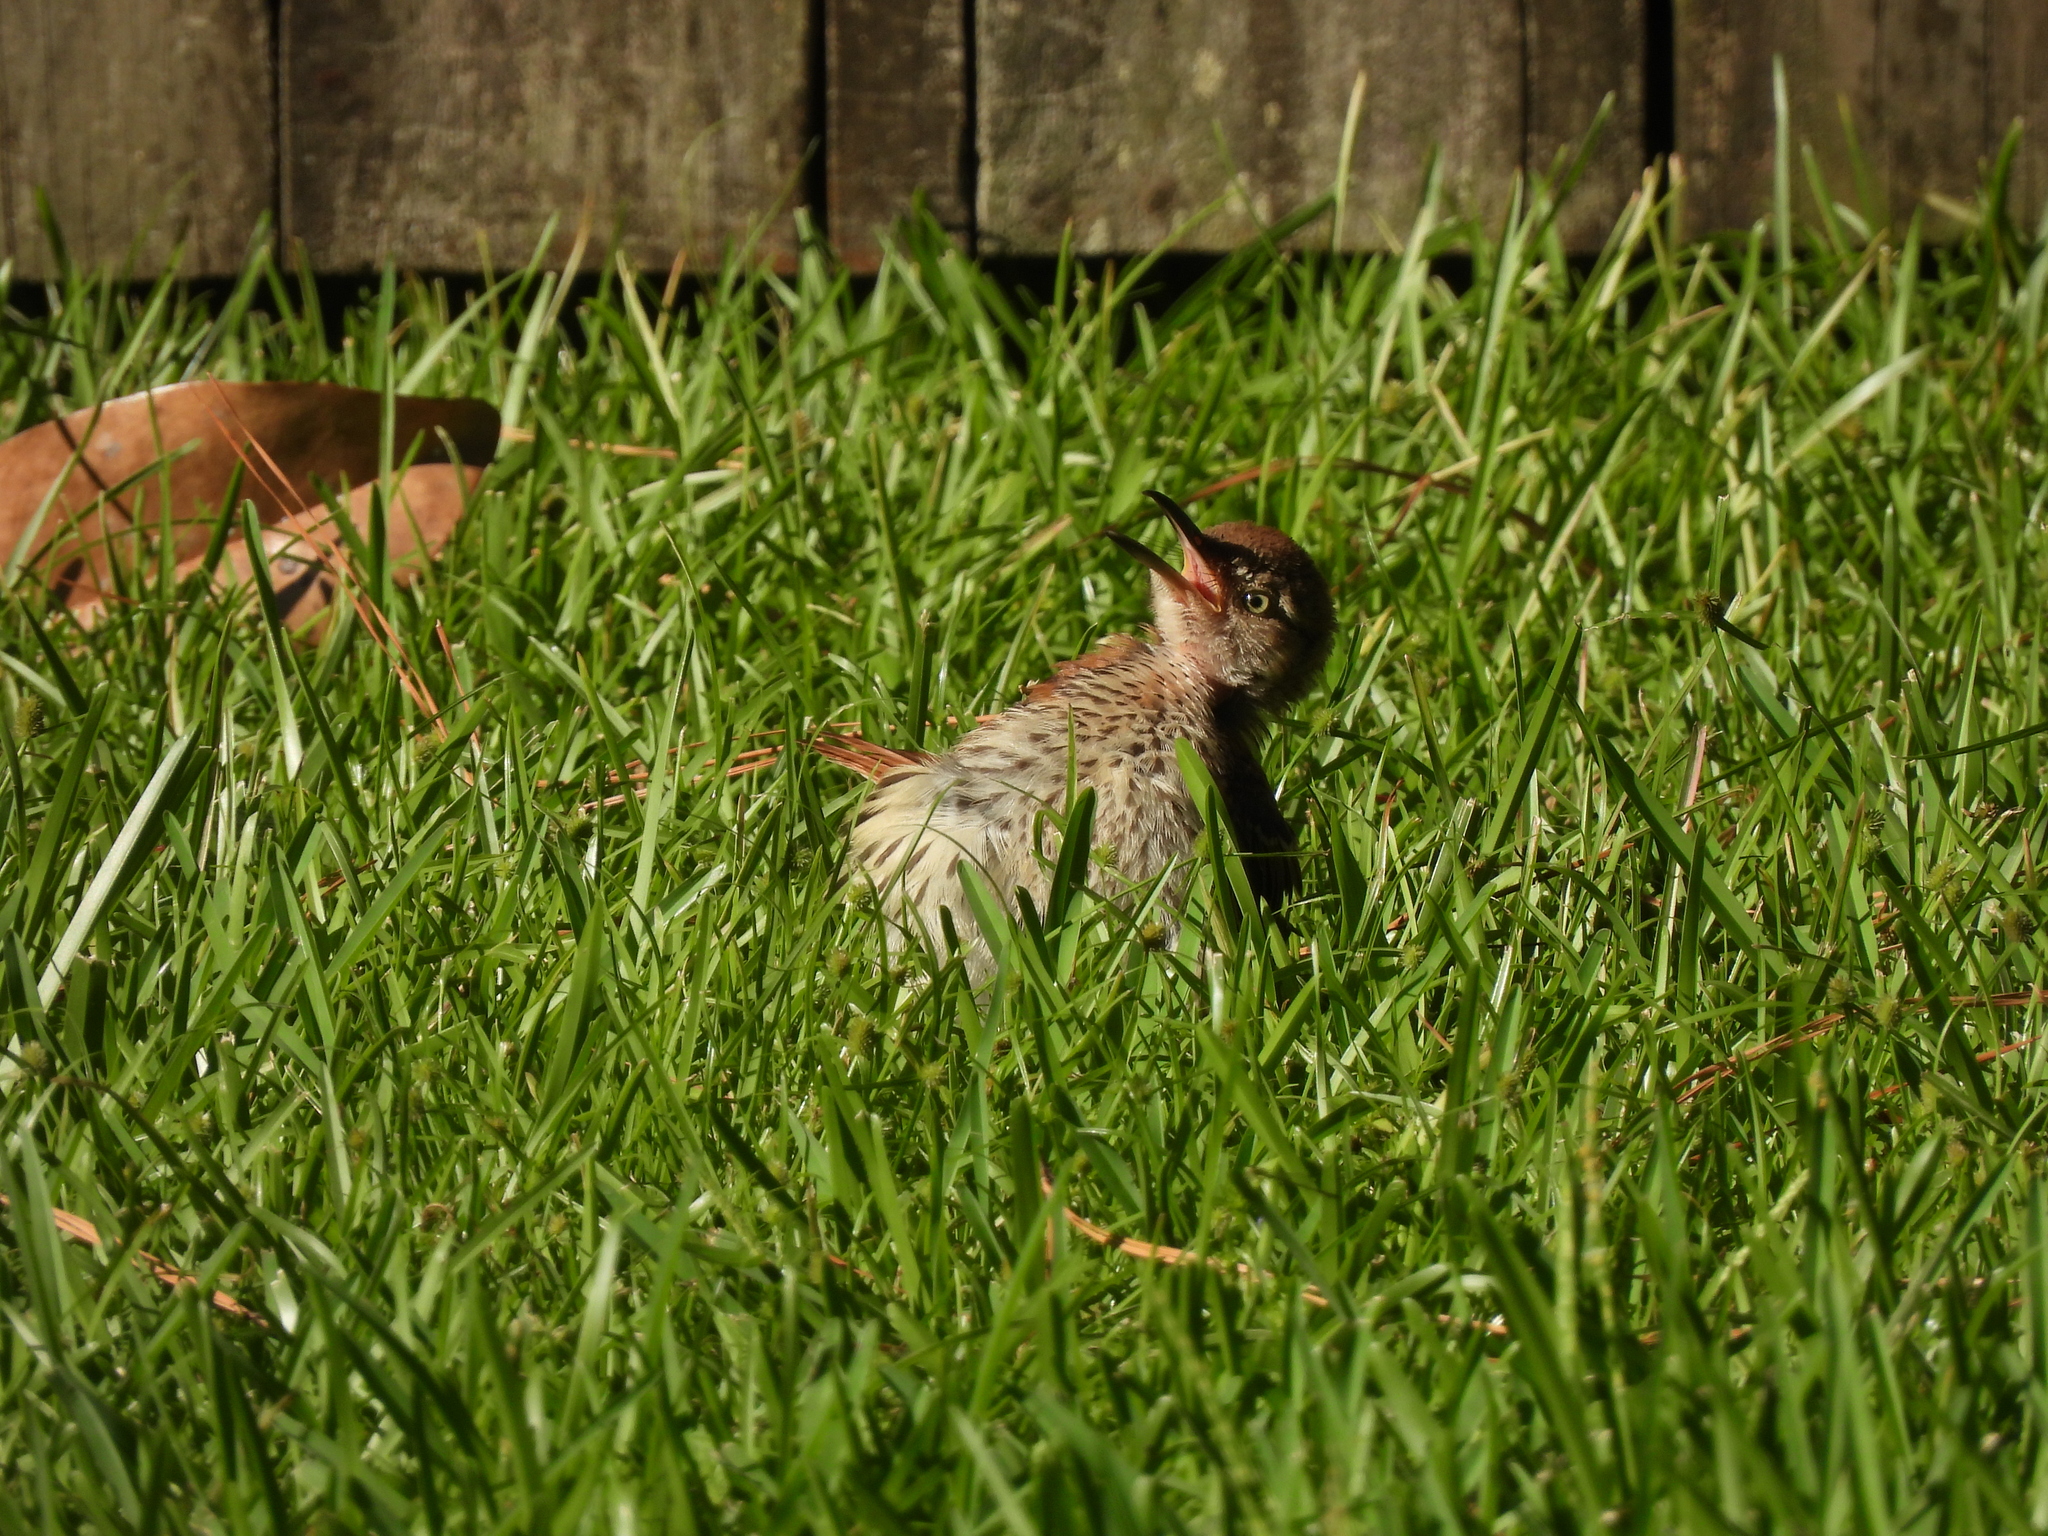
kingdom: Animalia
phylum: Chordata
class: Aves
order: Passeriformes
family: Mimidae
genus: Toxostoma
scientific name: Toxostoma rufum
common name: Brown thrasher
